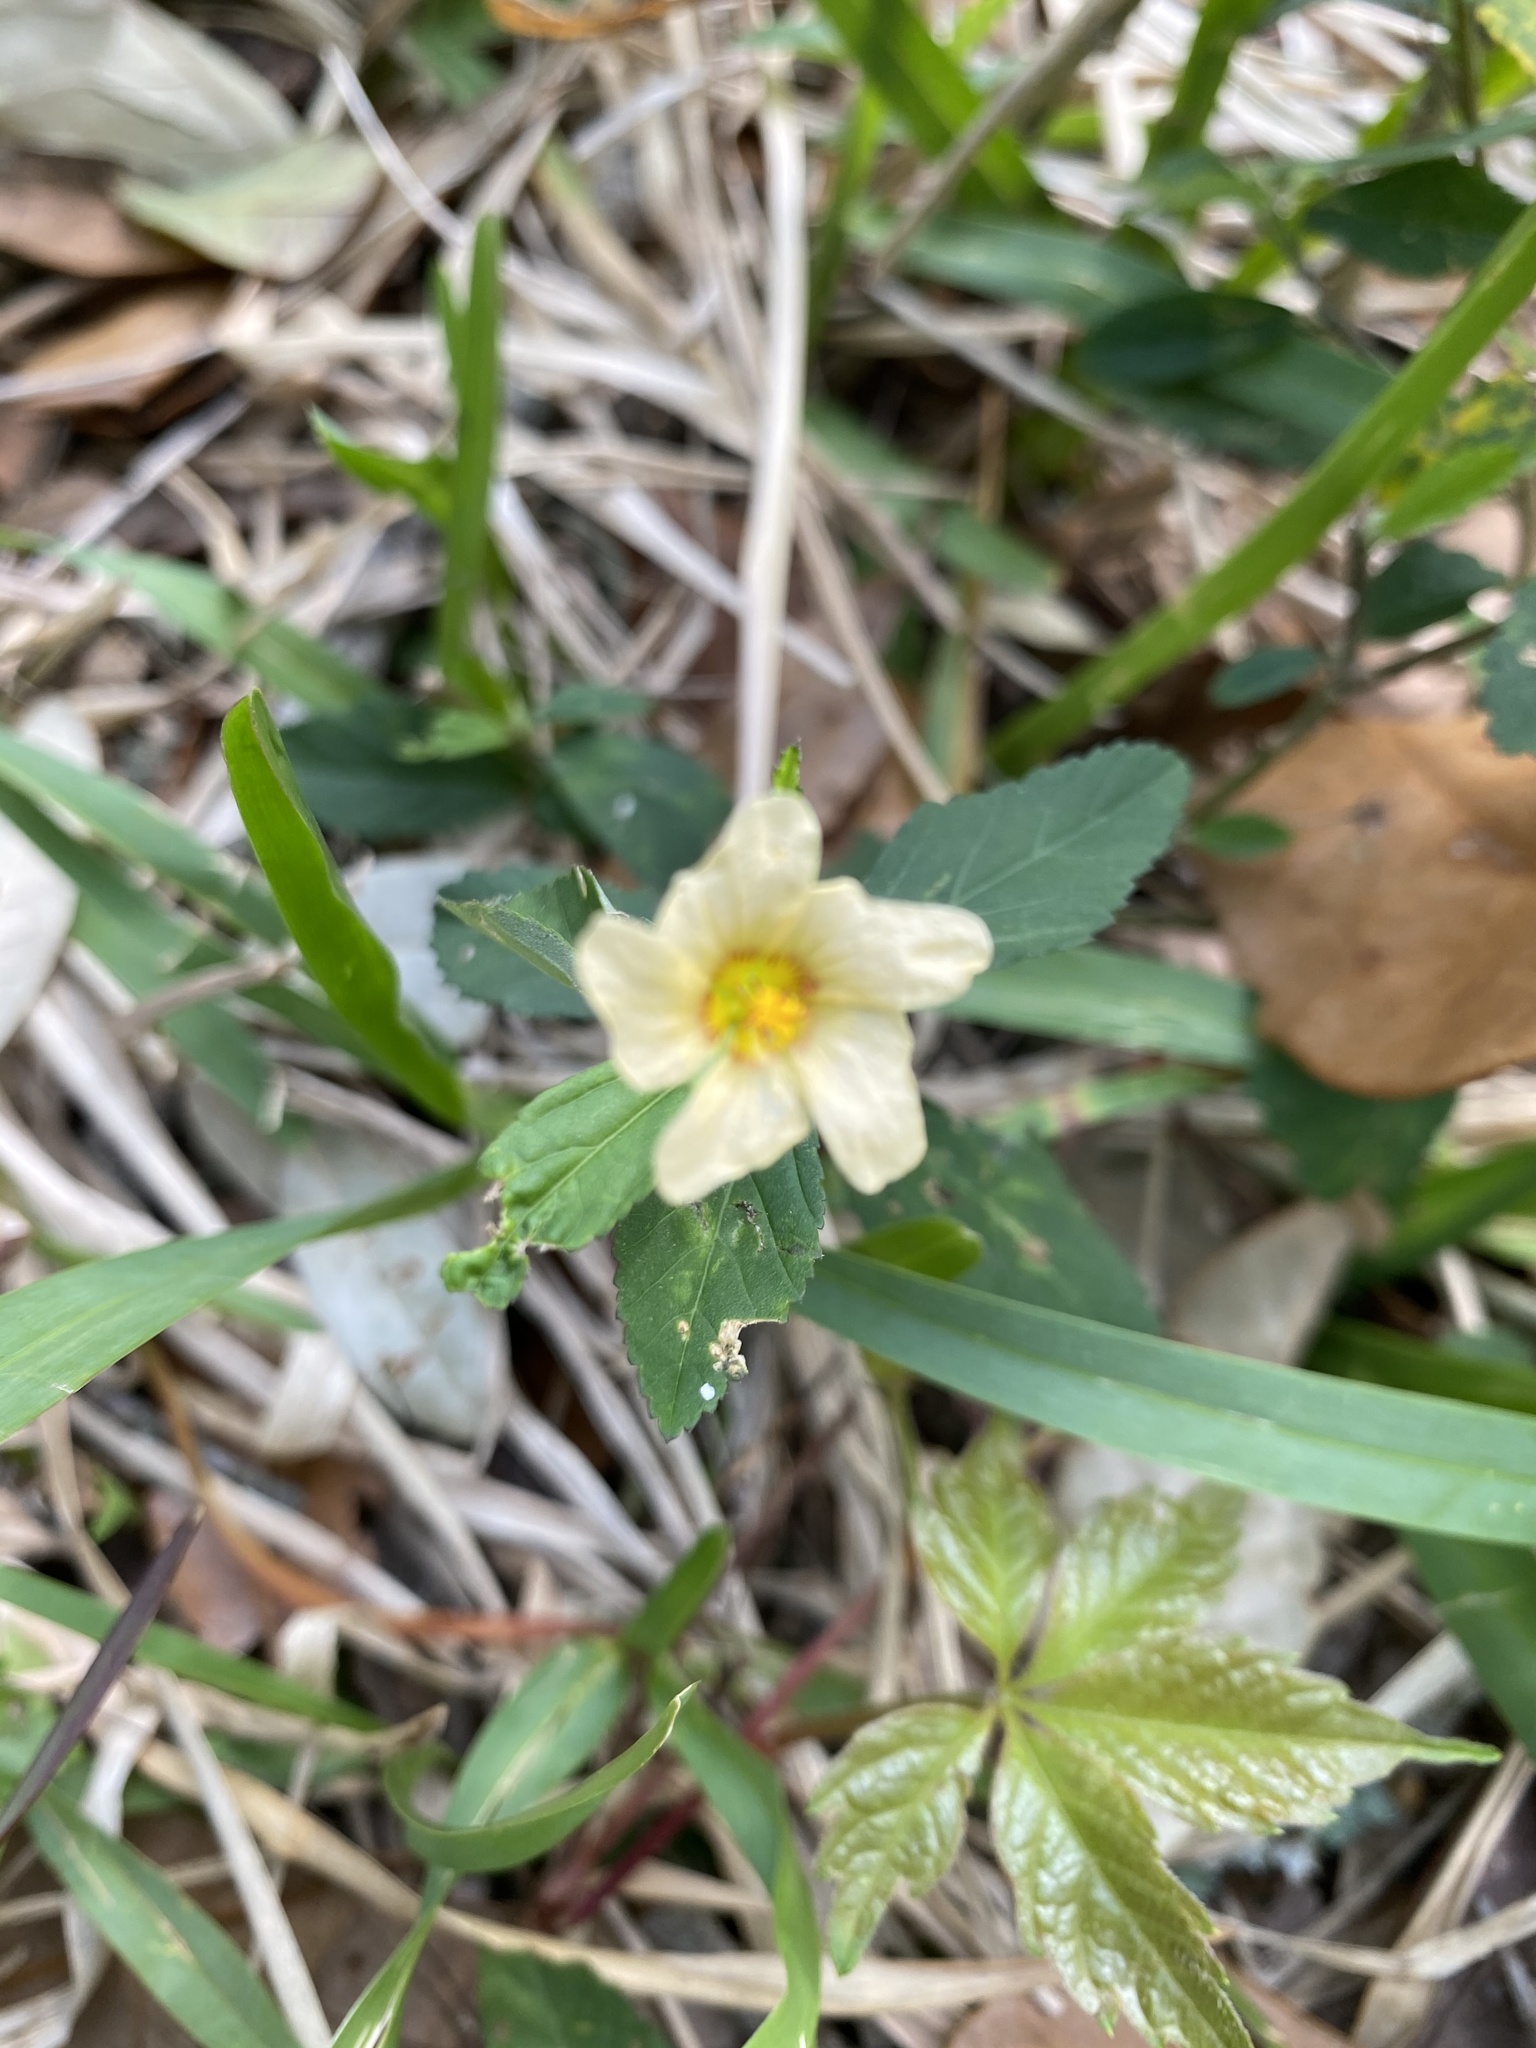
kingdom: Plantae
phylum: Tracheophyta
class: Magnoliopsida
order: Malvales
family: Malvaceae
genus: Sida
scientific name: Sida rhombifolia
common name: Queensland-hemp
